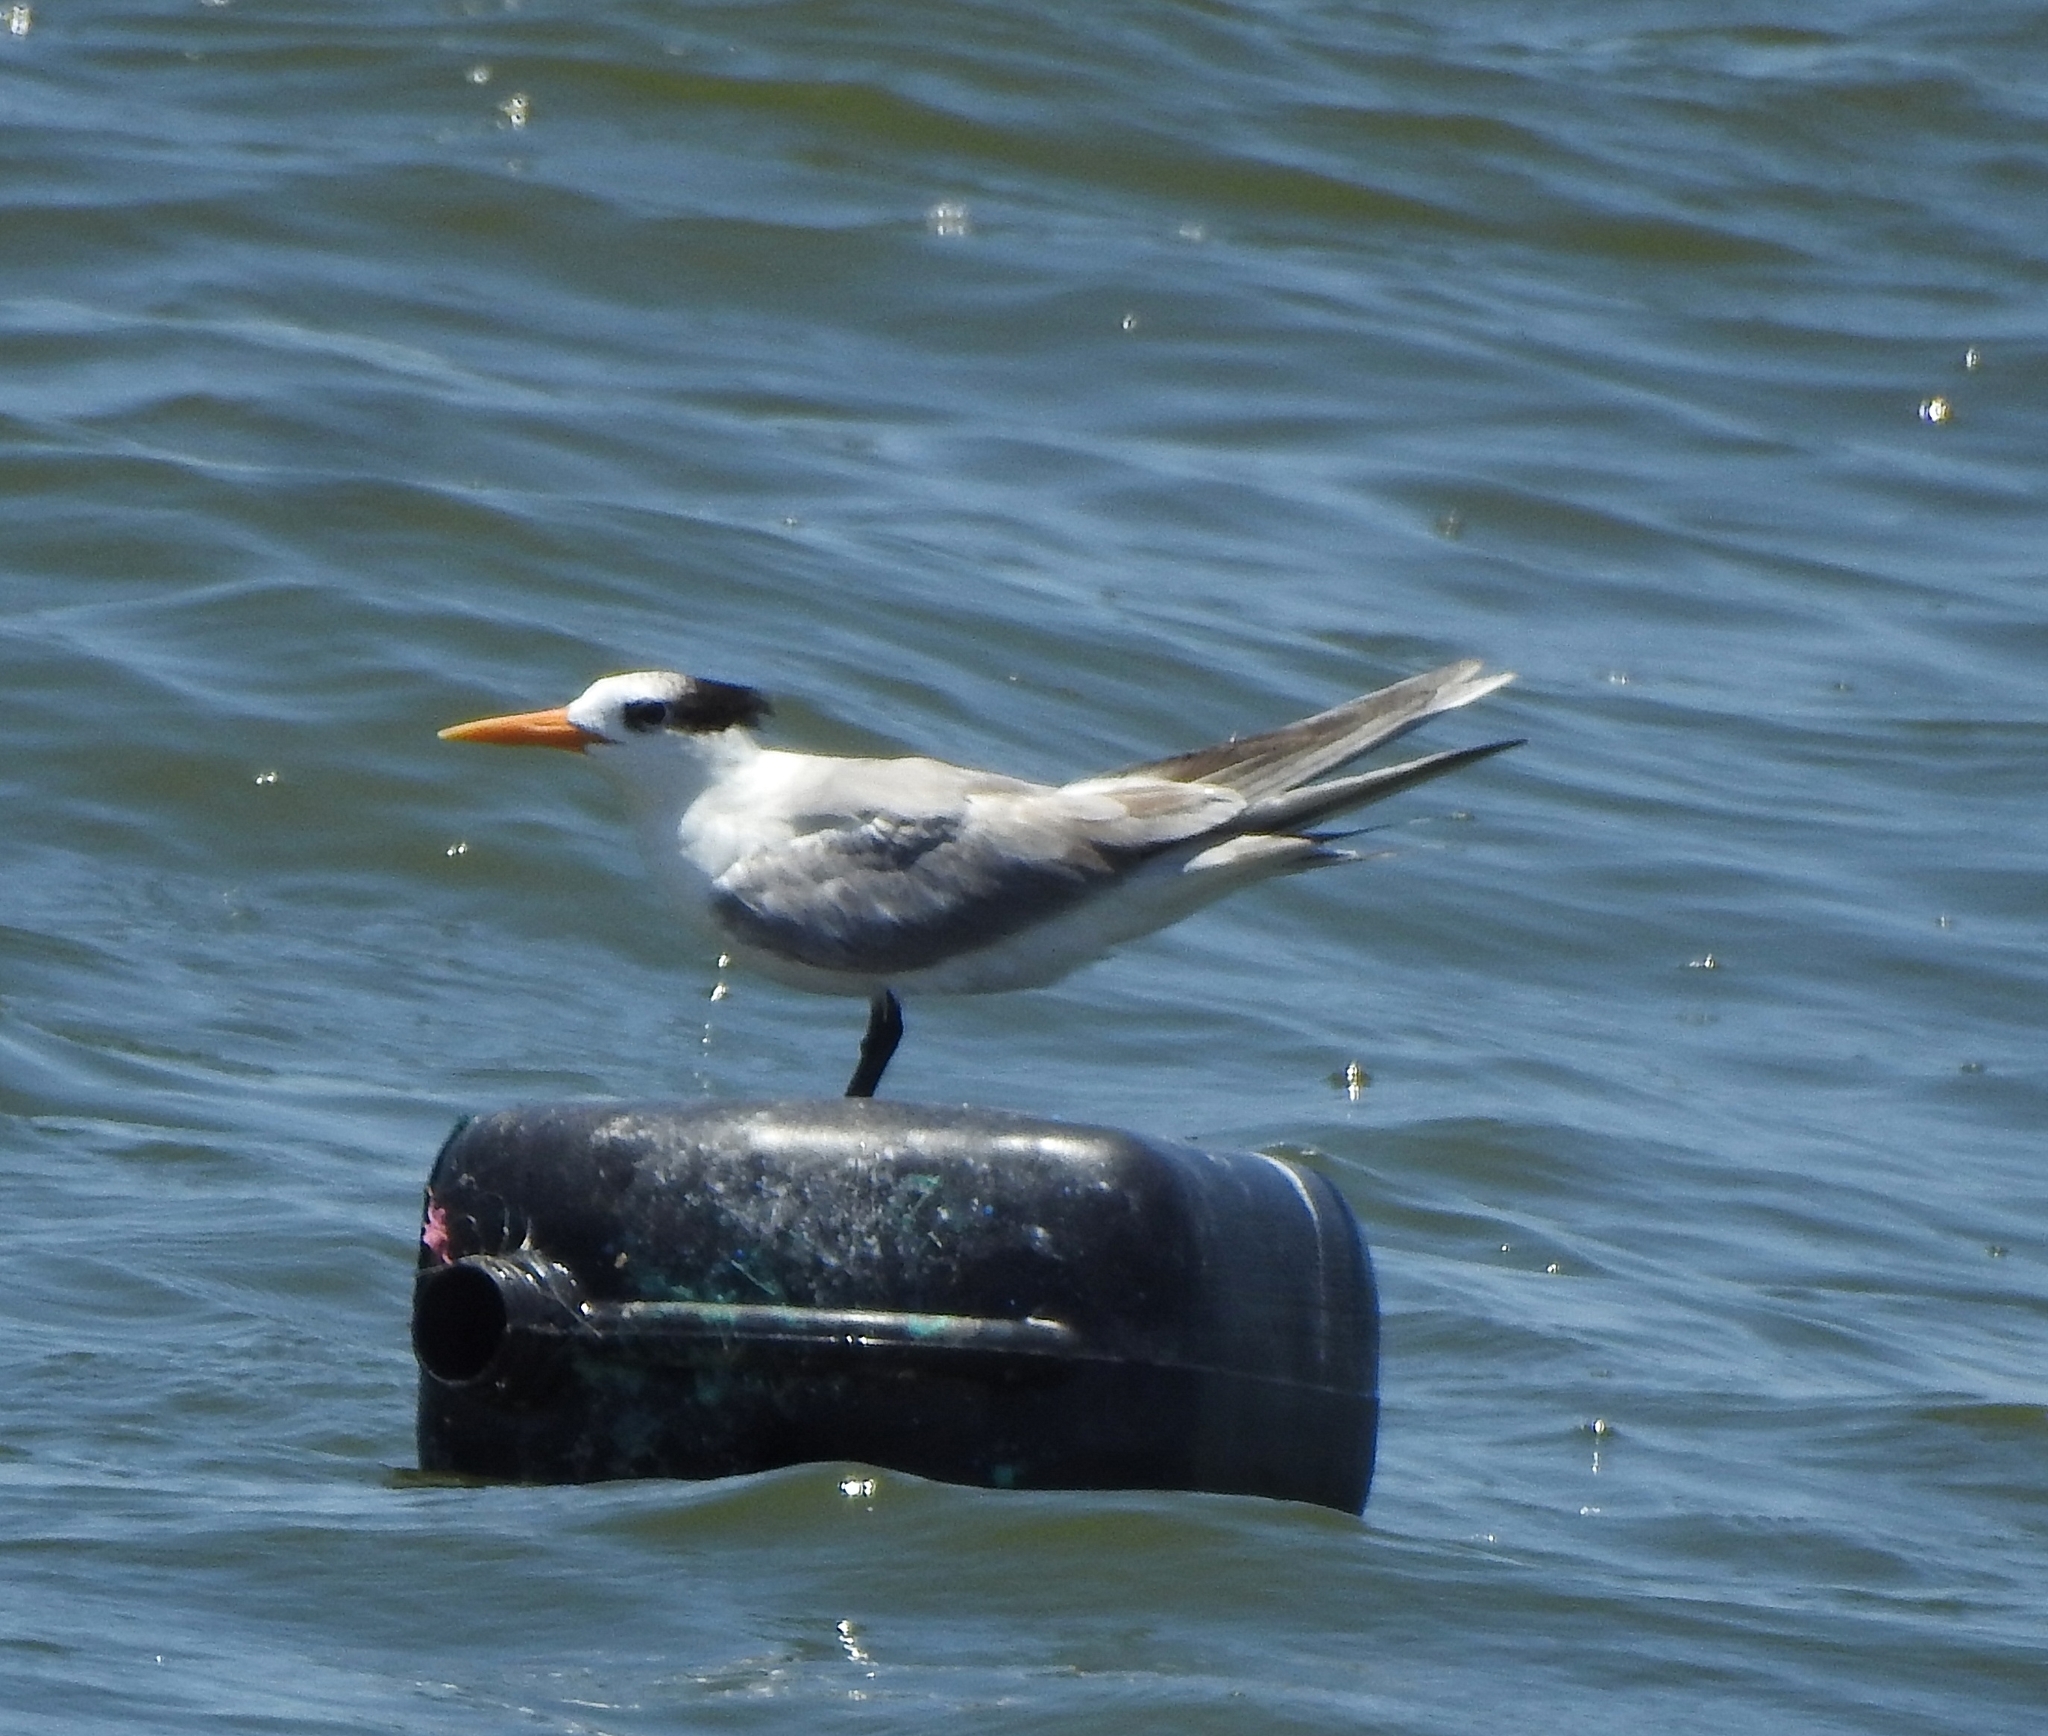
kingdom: Animalia
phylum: Chordata
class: Aves
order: Charadriiformes
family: Laridae
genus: Thalasseus
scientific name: Thalasseus bengalensis
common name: Lesser crested tern
